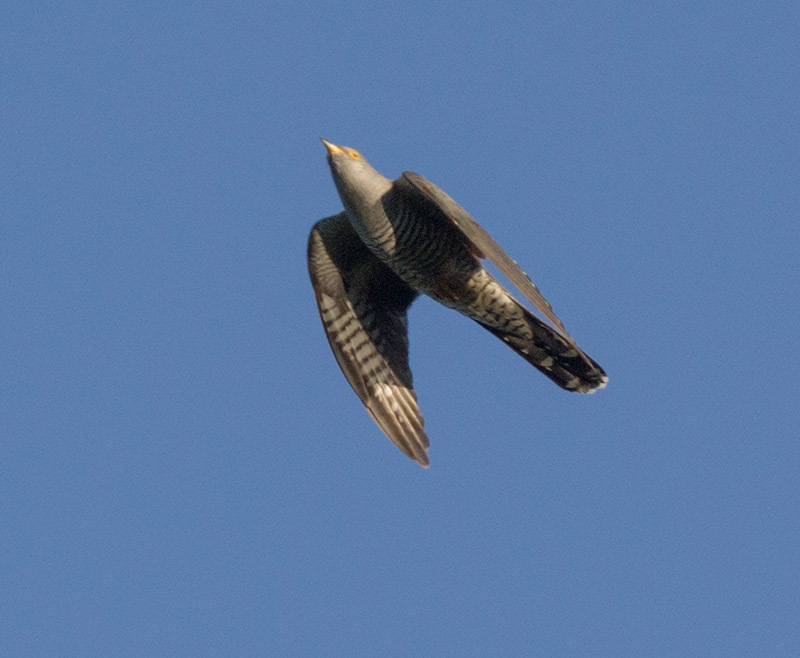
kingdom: Animalia
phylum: Chordata
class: Aves
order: Cuculiformes
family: Cuculidae
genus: Cuculus
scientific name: Cuculus canorus
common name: Common cuckoo
